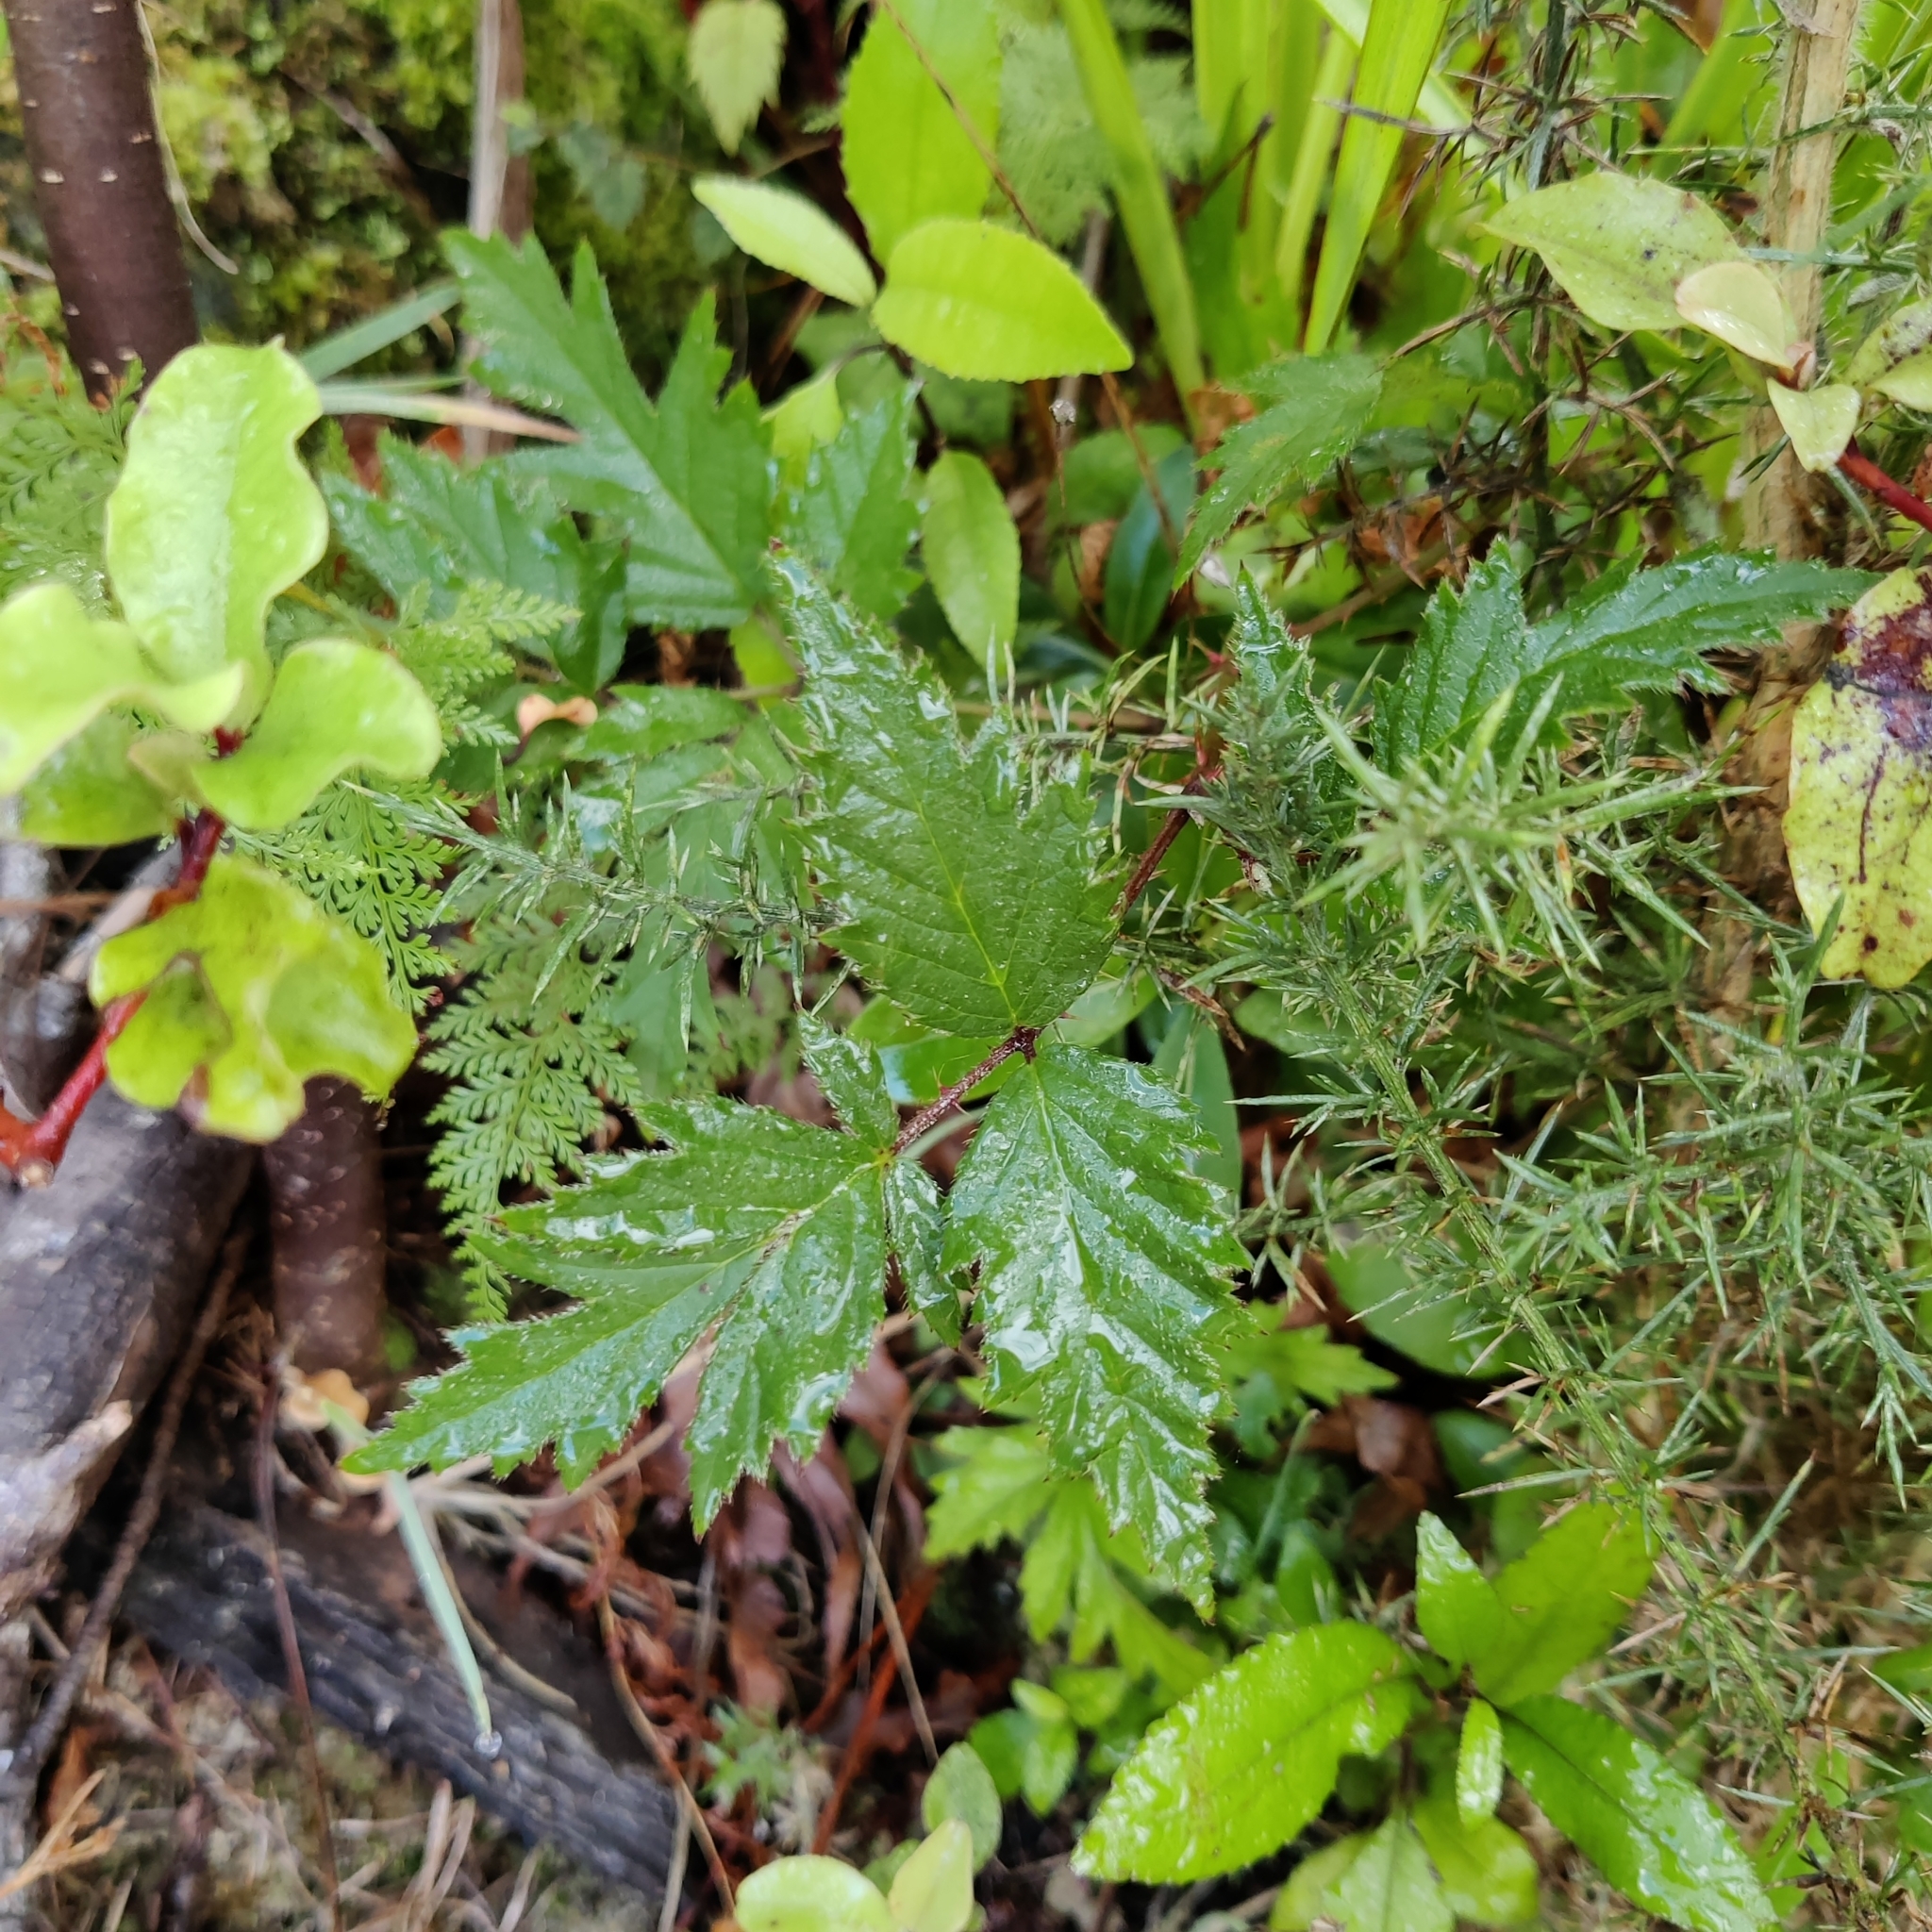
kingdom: Plantae
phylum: Tracheophyta
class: Magnoliopsida
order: Rosales
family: Rosaceae
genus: Rubus
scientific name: Rubus laciniatus
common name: Evergreen blackberry
